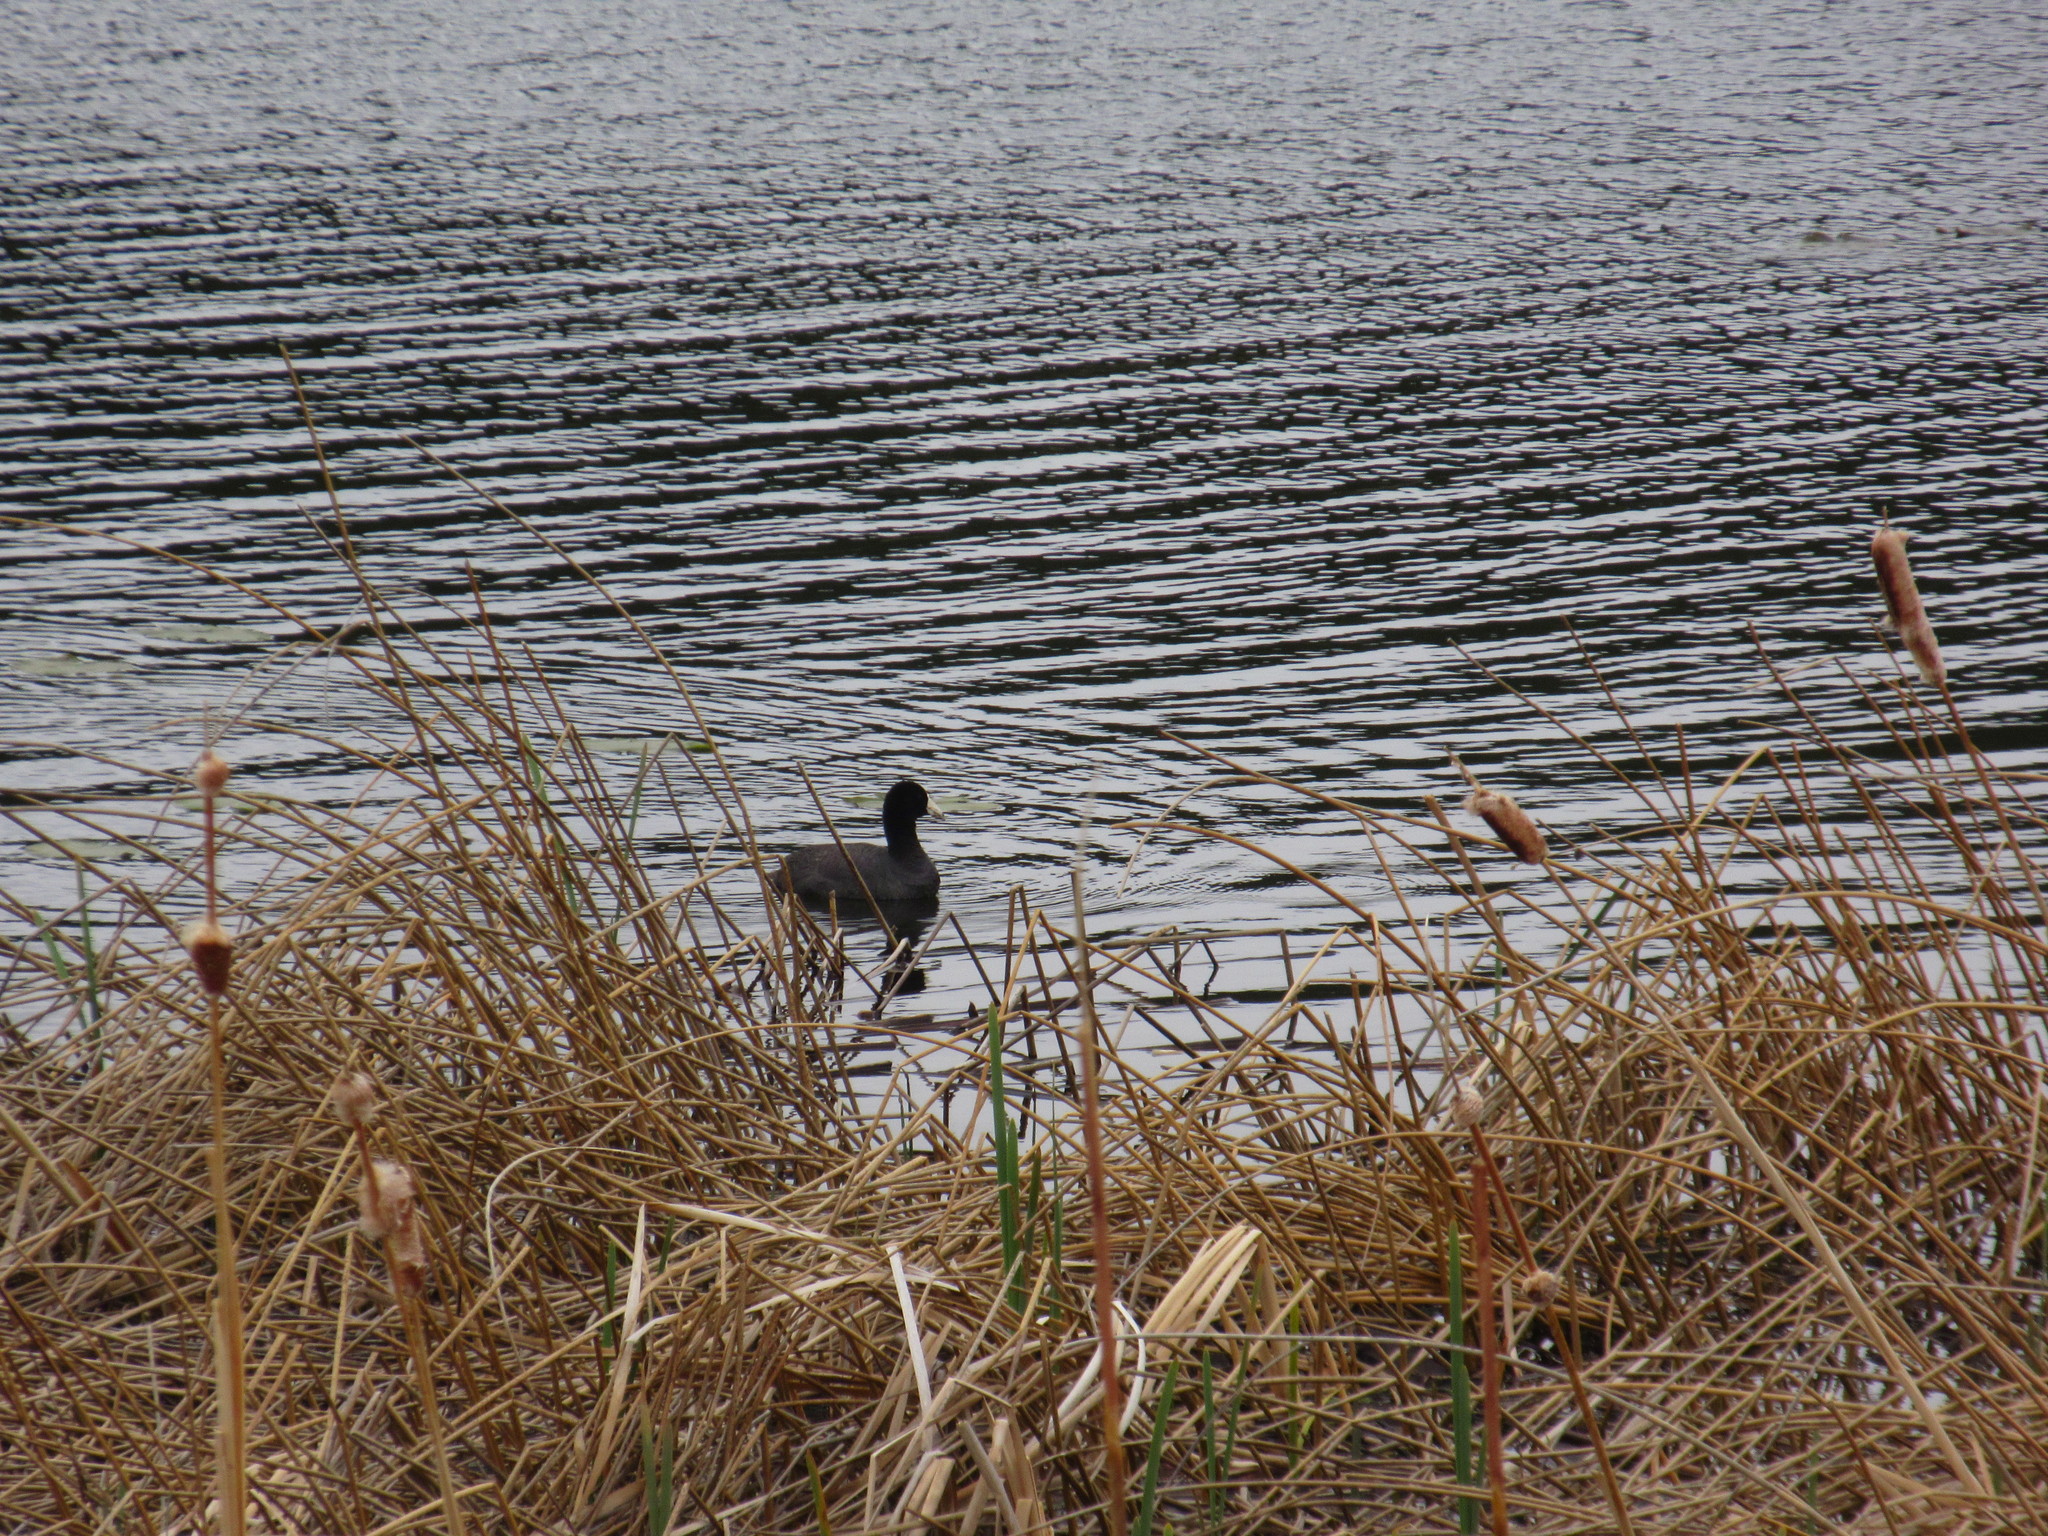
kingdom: Animalia
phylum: Chordata
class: Aves
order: Gruiformes
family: Rallidae
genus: Fulica
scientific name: Fulica americana
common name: American coot
